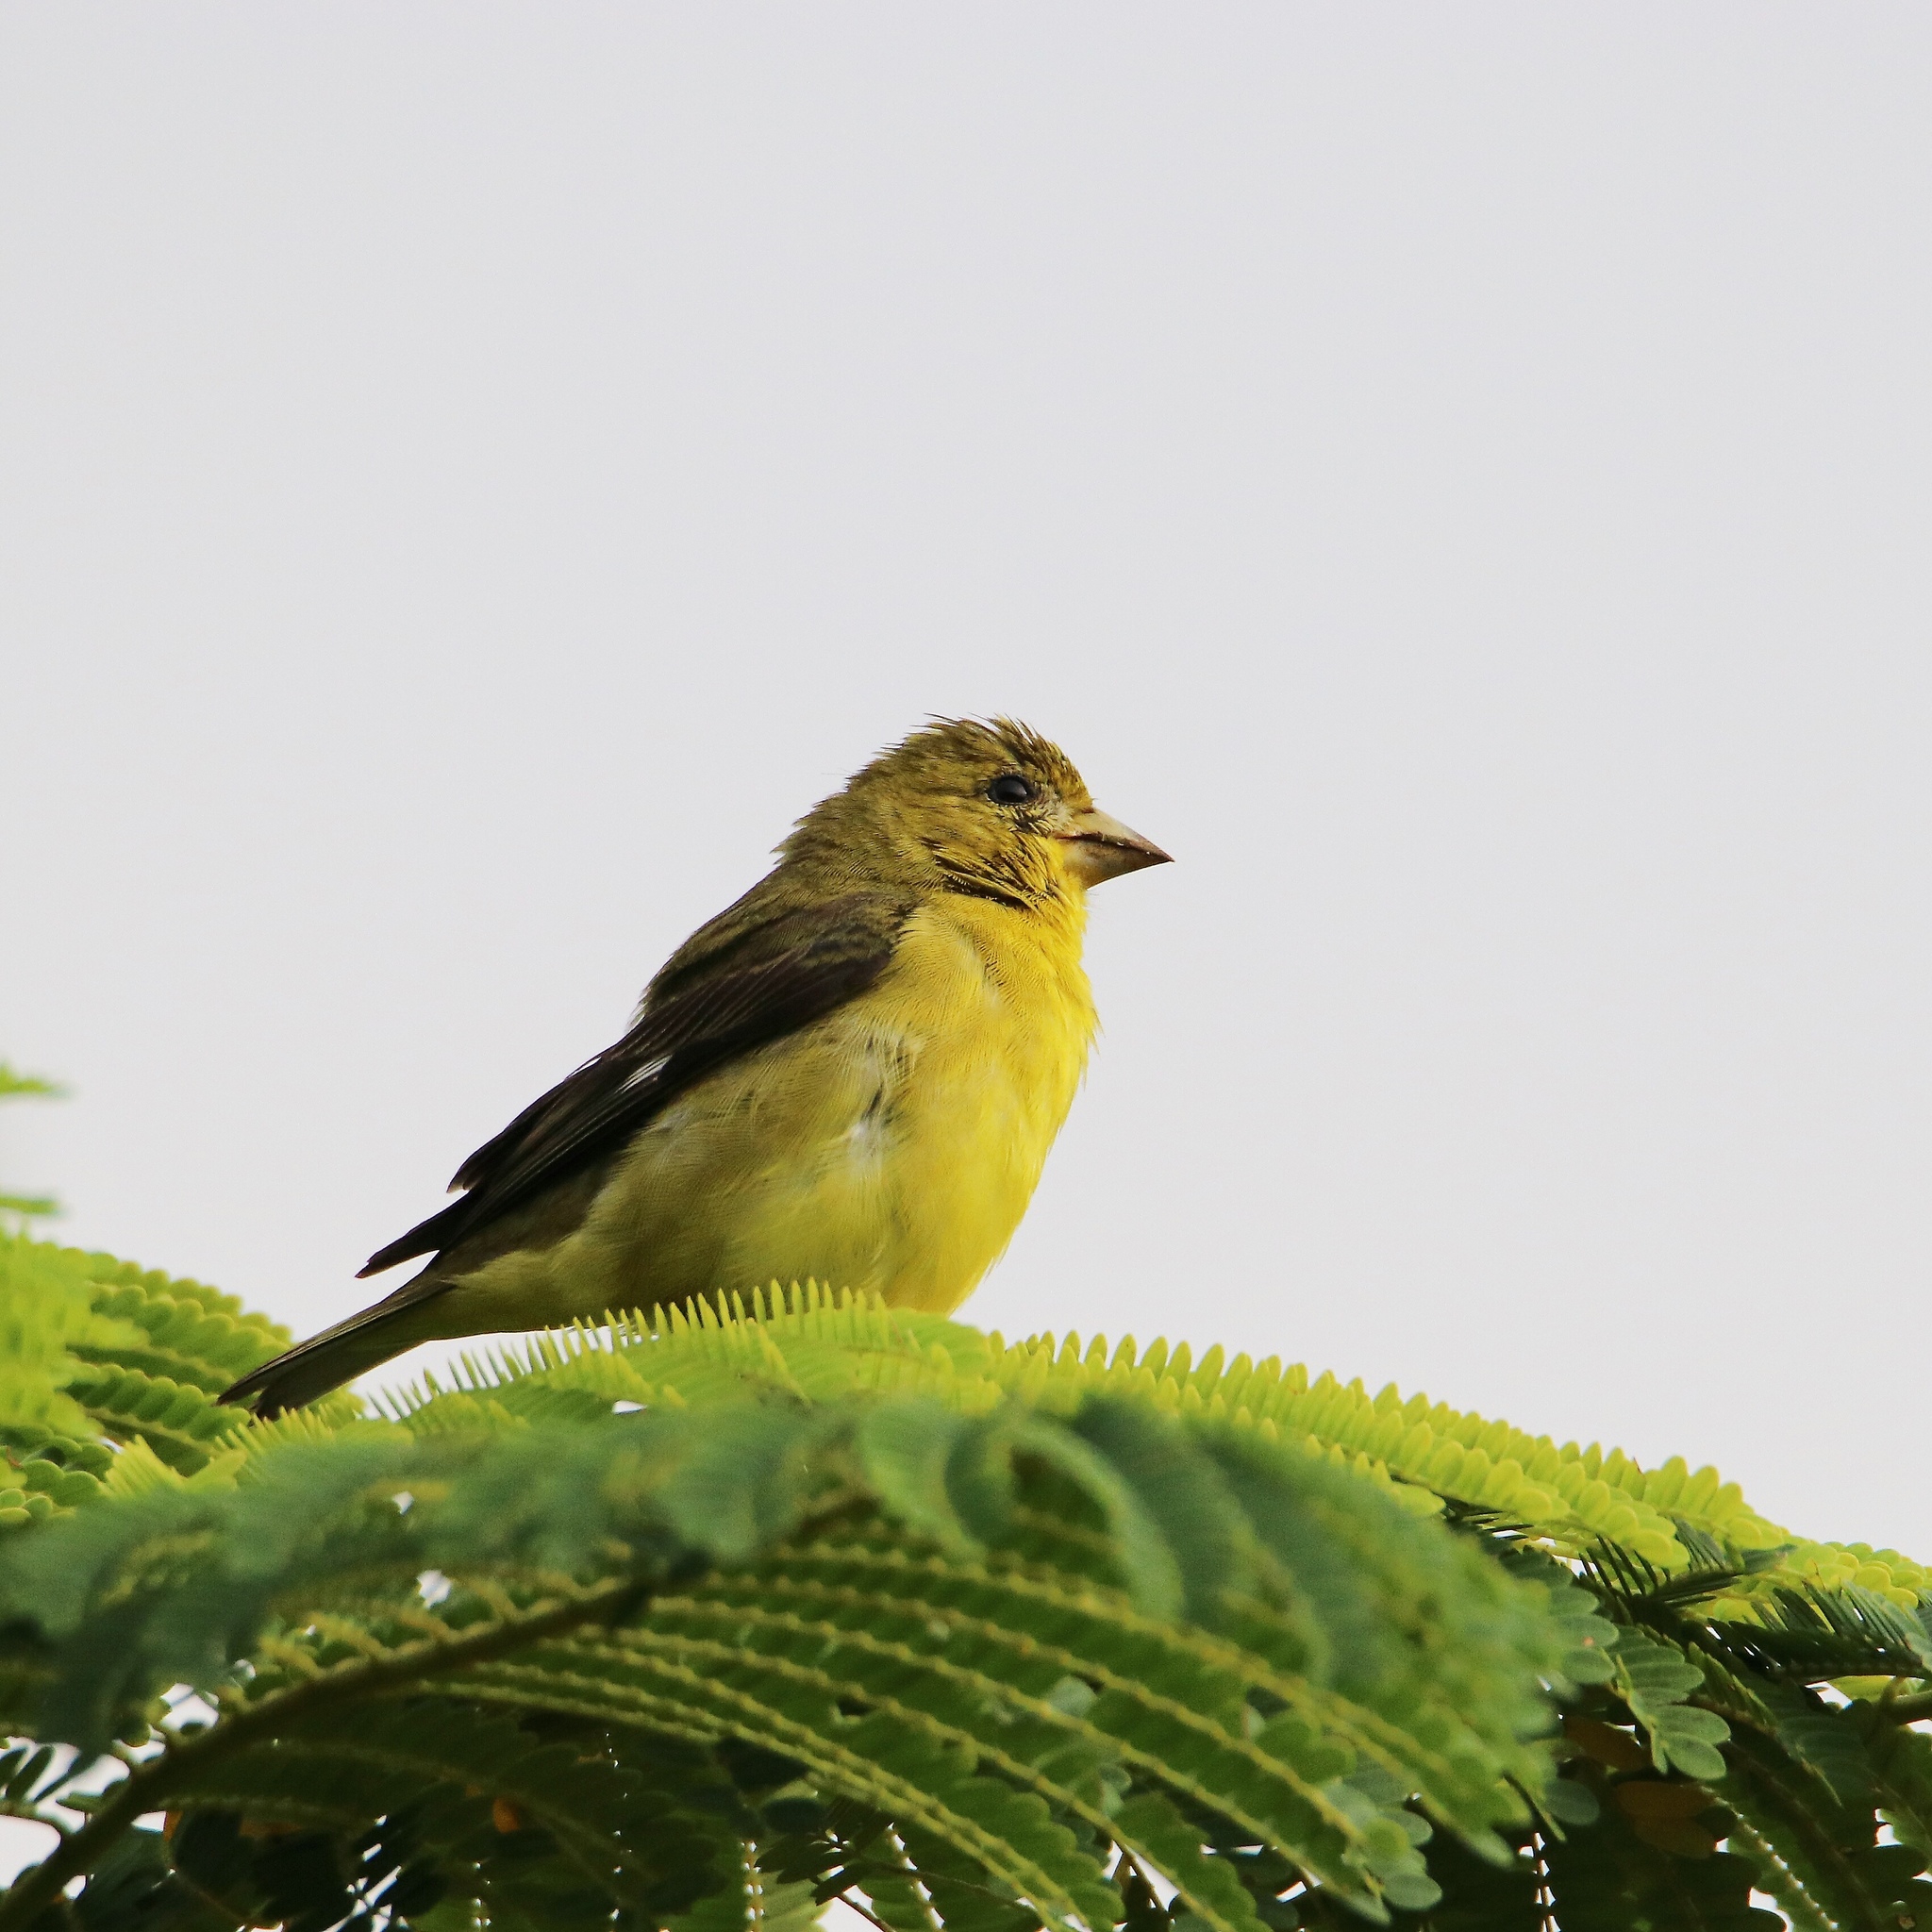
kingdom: Animalia
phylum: Chordata
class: Aves
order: Passeriformes
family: Thraupidae
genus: Sporophila
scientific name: Sporophila nigricollis
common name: Yellow-bellied seedeater
